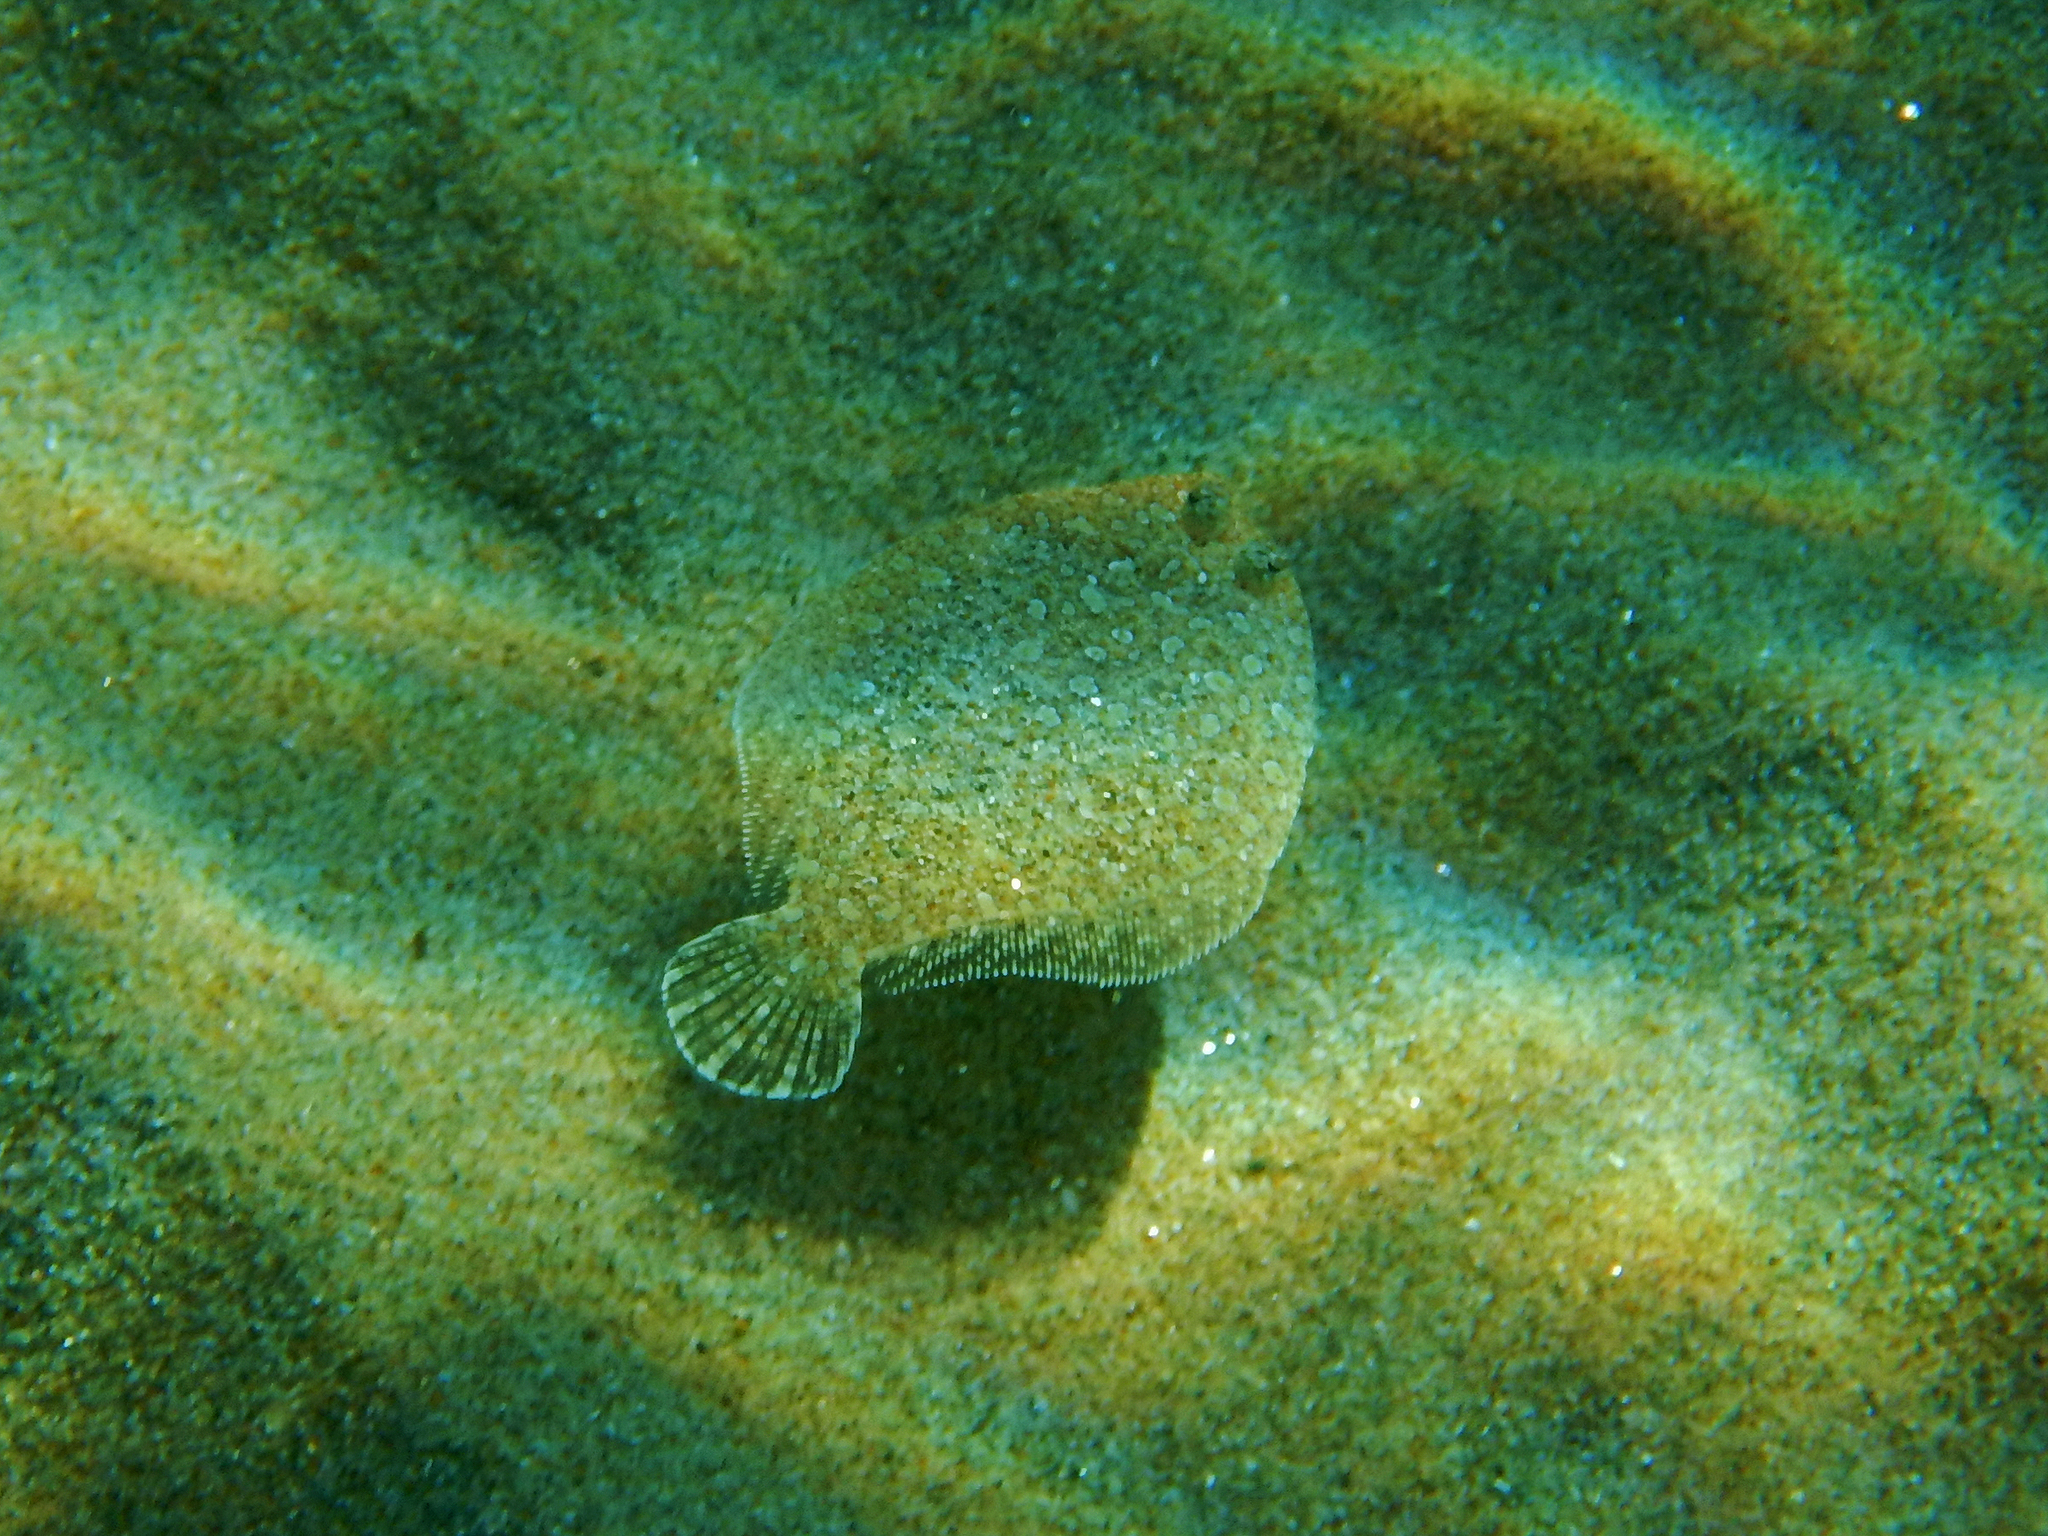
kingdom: Animalia
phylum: Chordata
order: Pleuronectiformes
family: Bothidae
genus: Bothus
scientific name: Bothus podas
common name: Wide-eyed flounder
